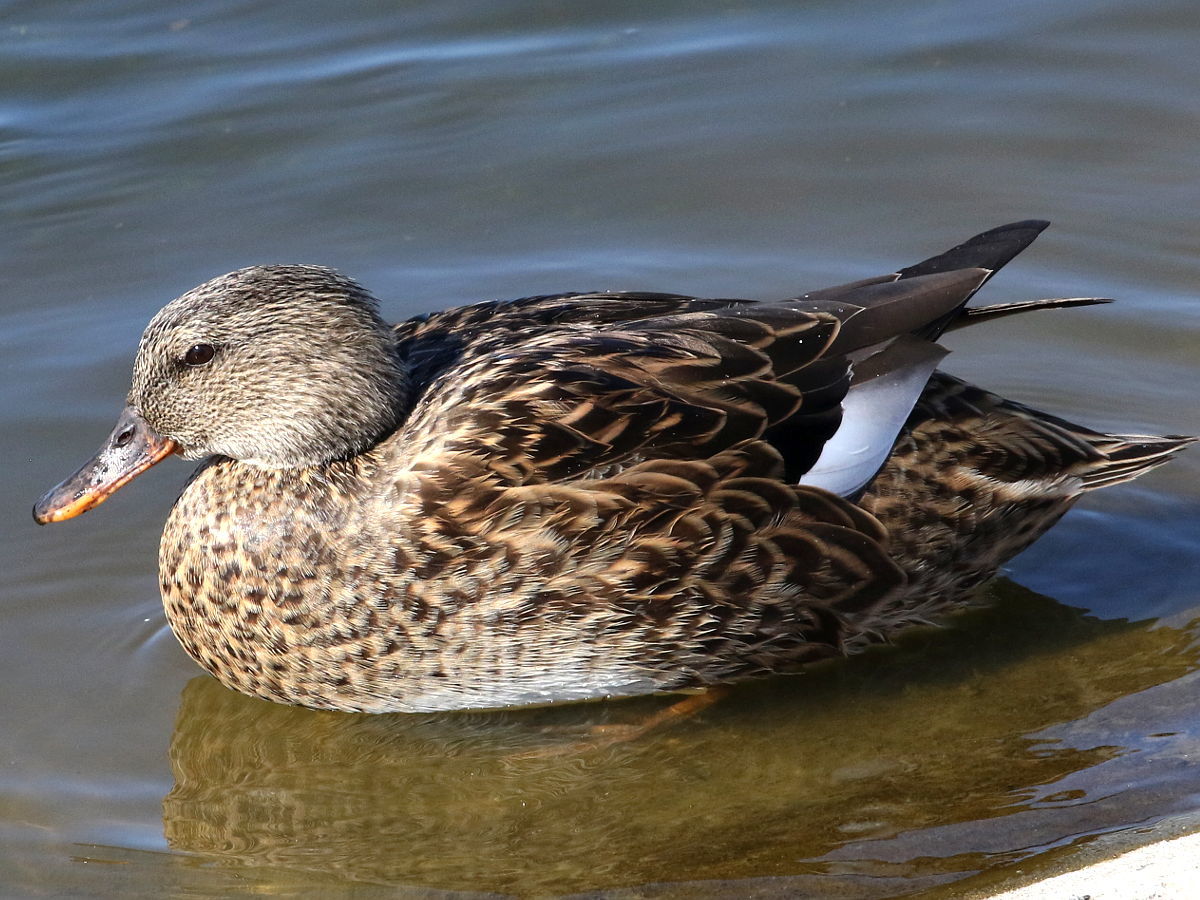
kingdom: Animalia
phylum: Chordata
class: Aves
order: Anseriformes
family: Anatidae
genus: Mareca
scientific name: Mareca strepera
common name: Gadwall
